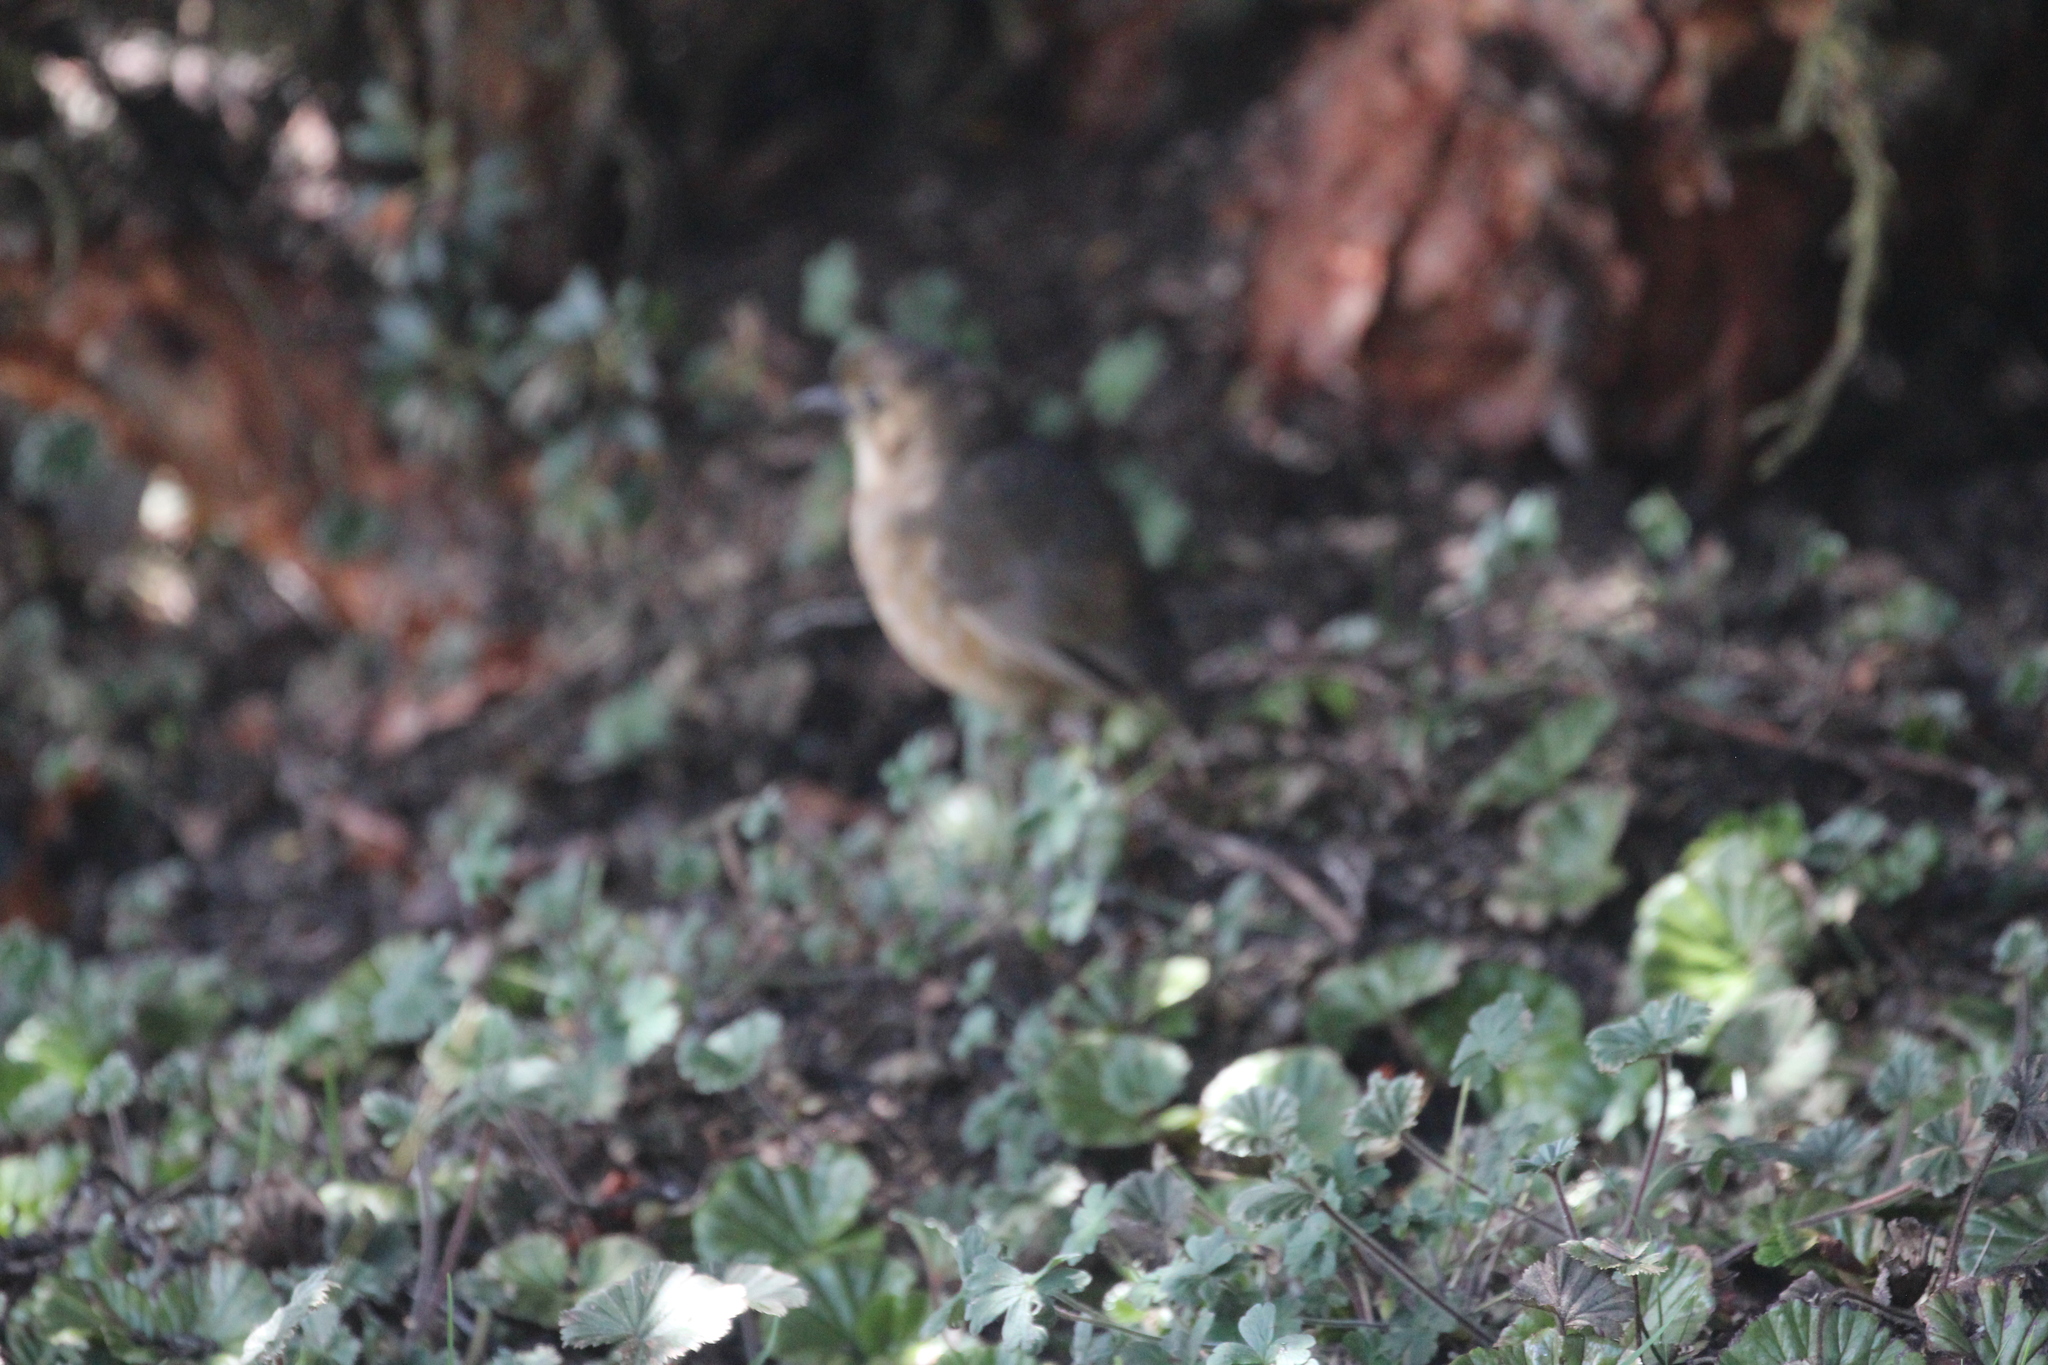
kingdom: Animalia
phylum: Chordata
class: Aves
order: Passeriformes
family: Grallariidae
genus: Grallaria
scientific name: Grallaria quitensis
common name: Tawny antpitta
